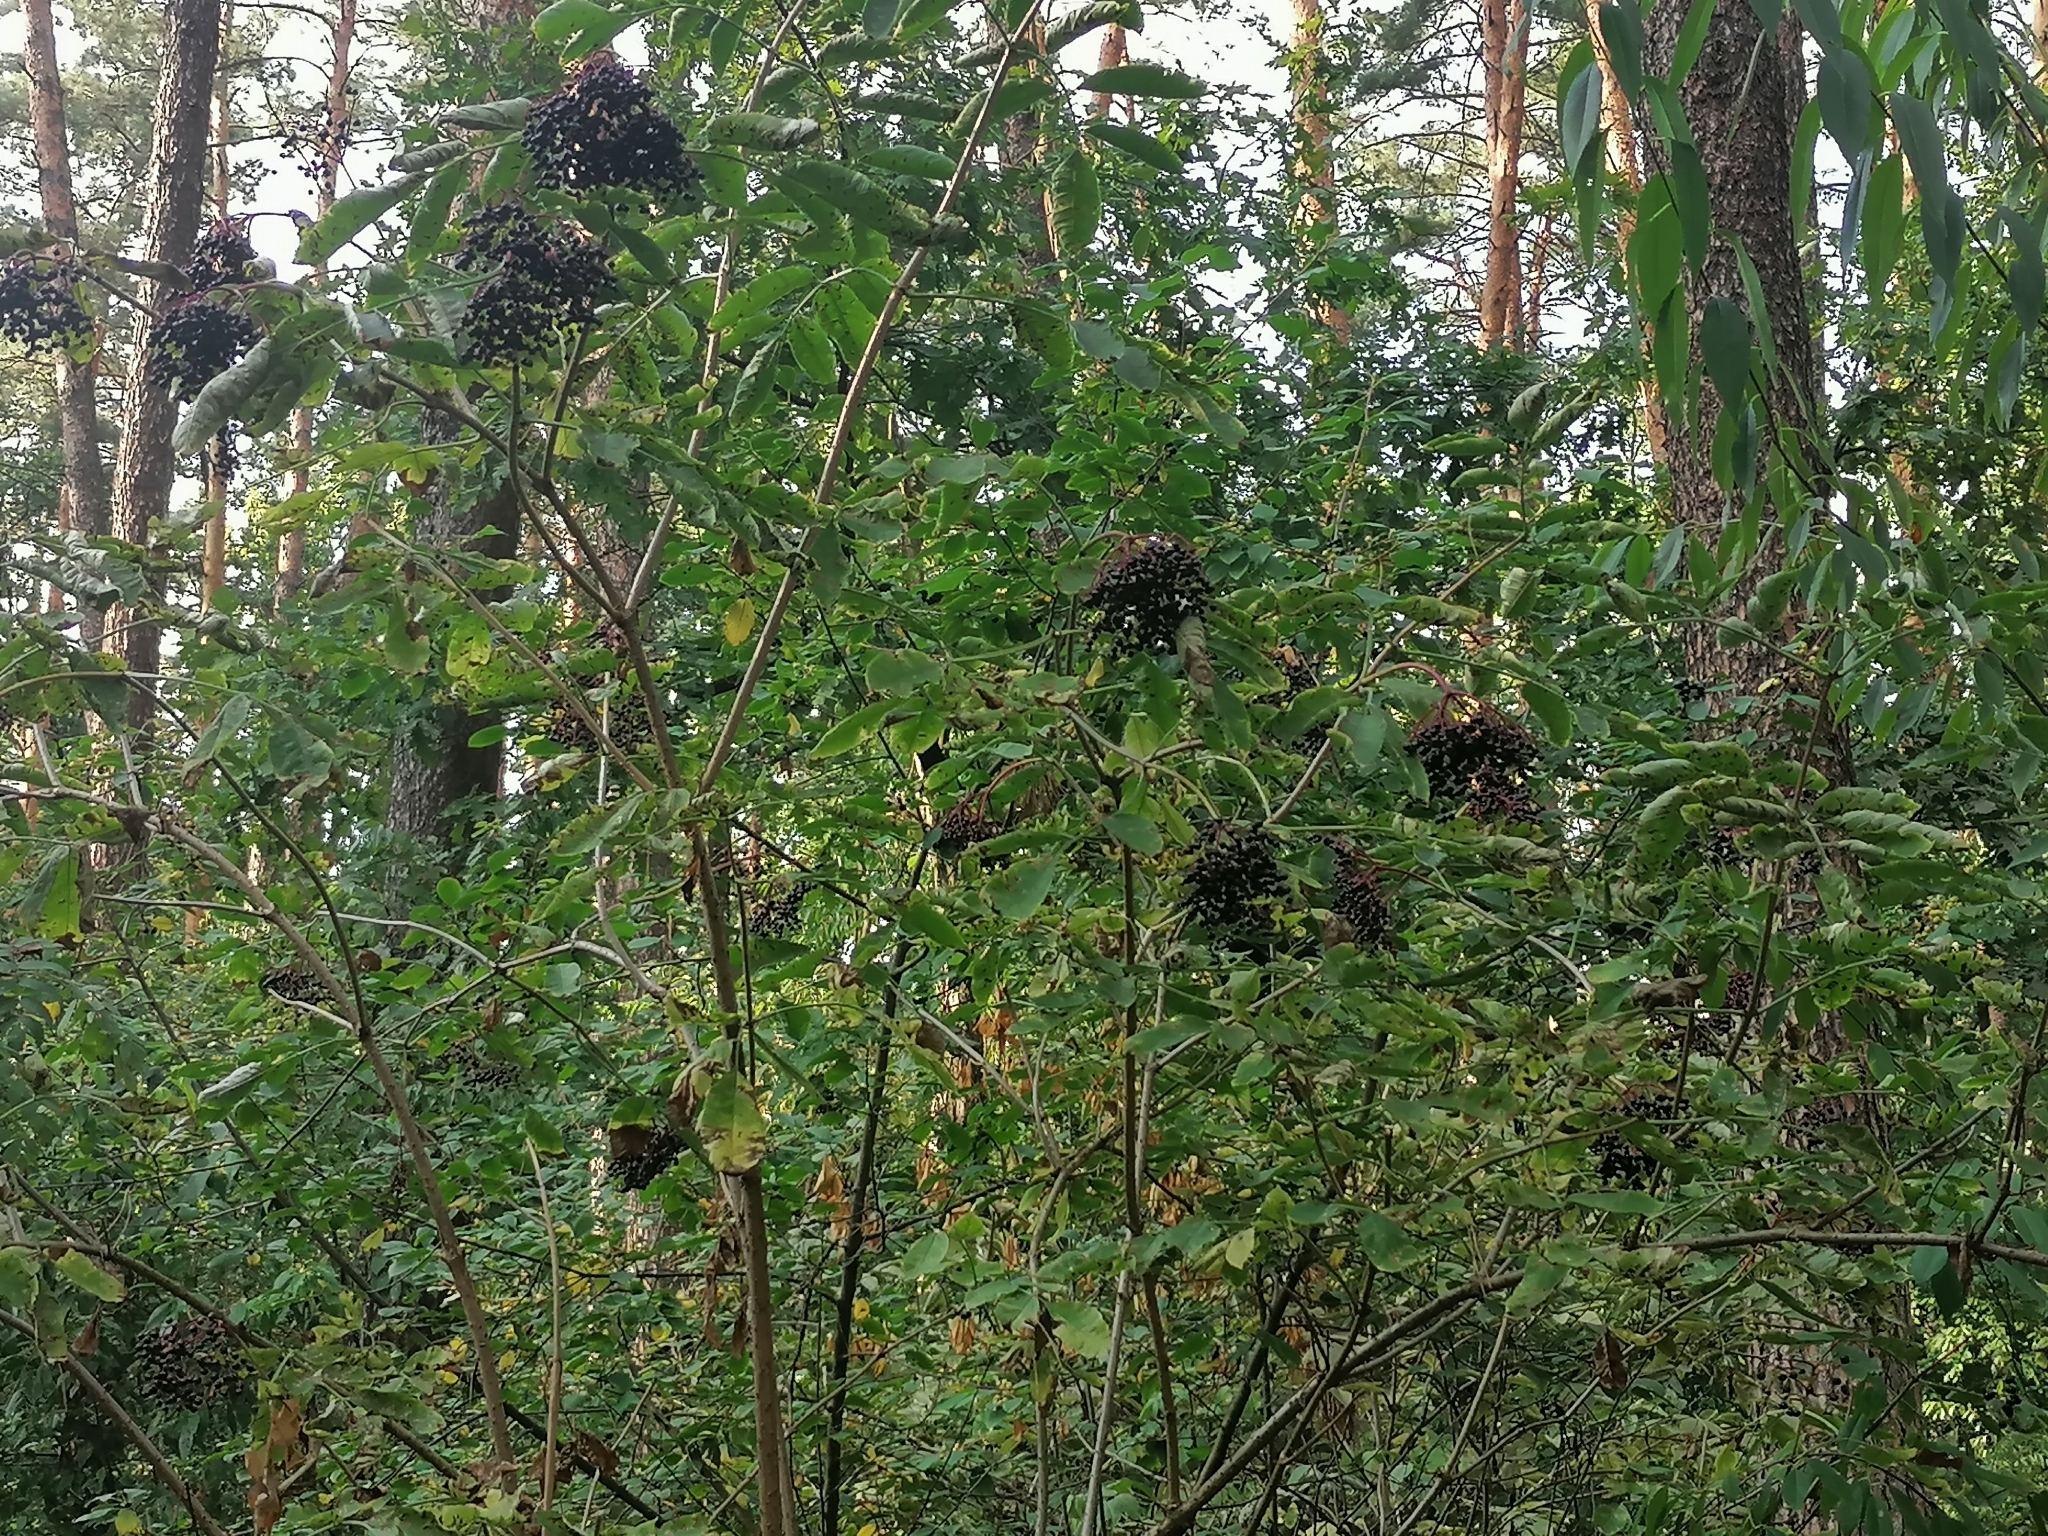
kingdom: Plantae
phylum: Tracheophyta
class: Magnoliopsida
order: Dipsacales
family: Viburnaceae
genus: Sambucus
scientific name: Sambucus nigra
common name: Elder
